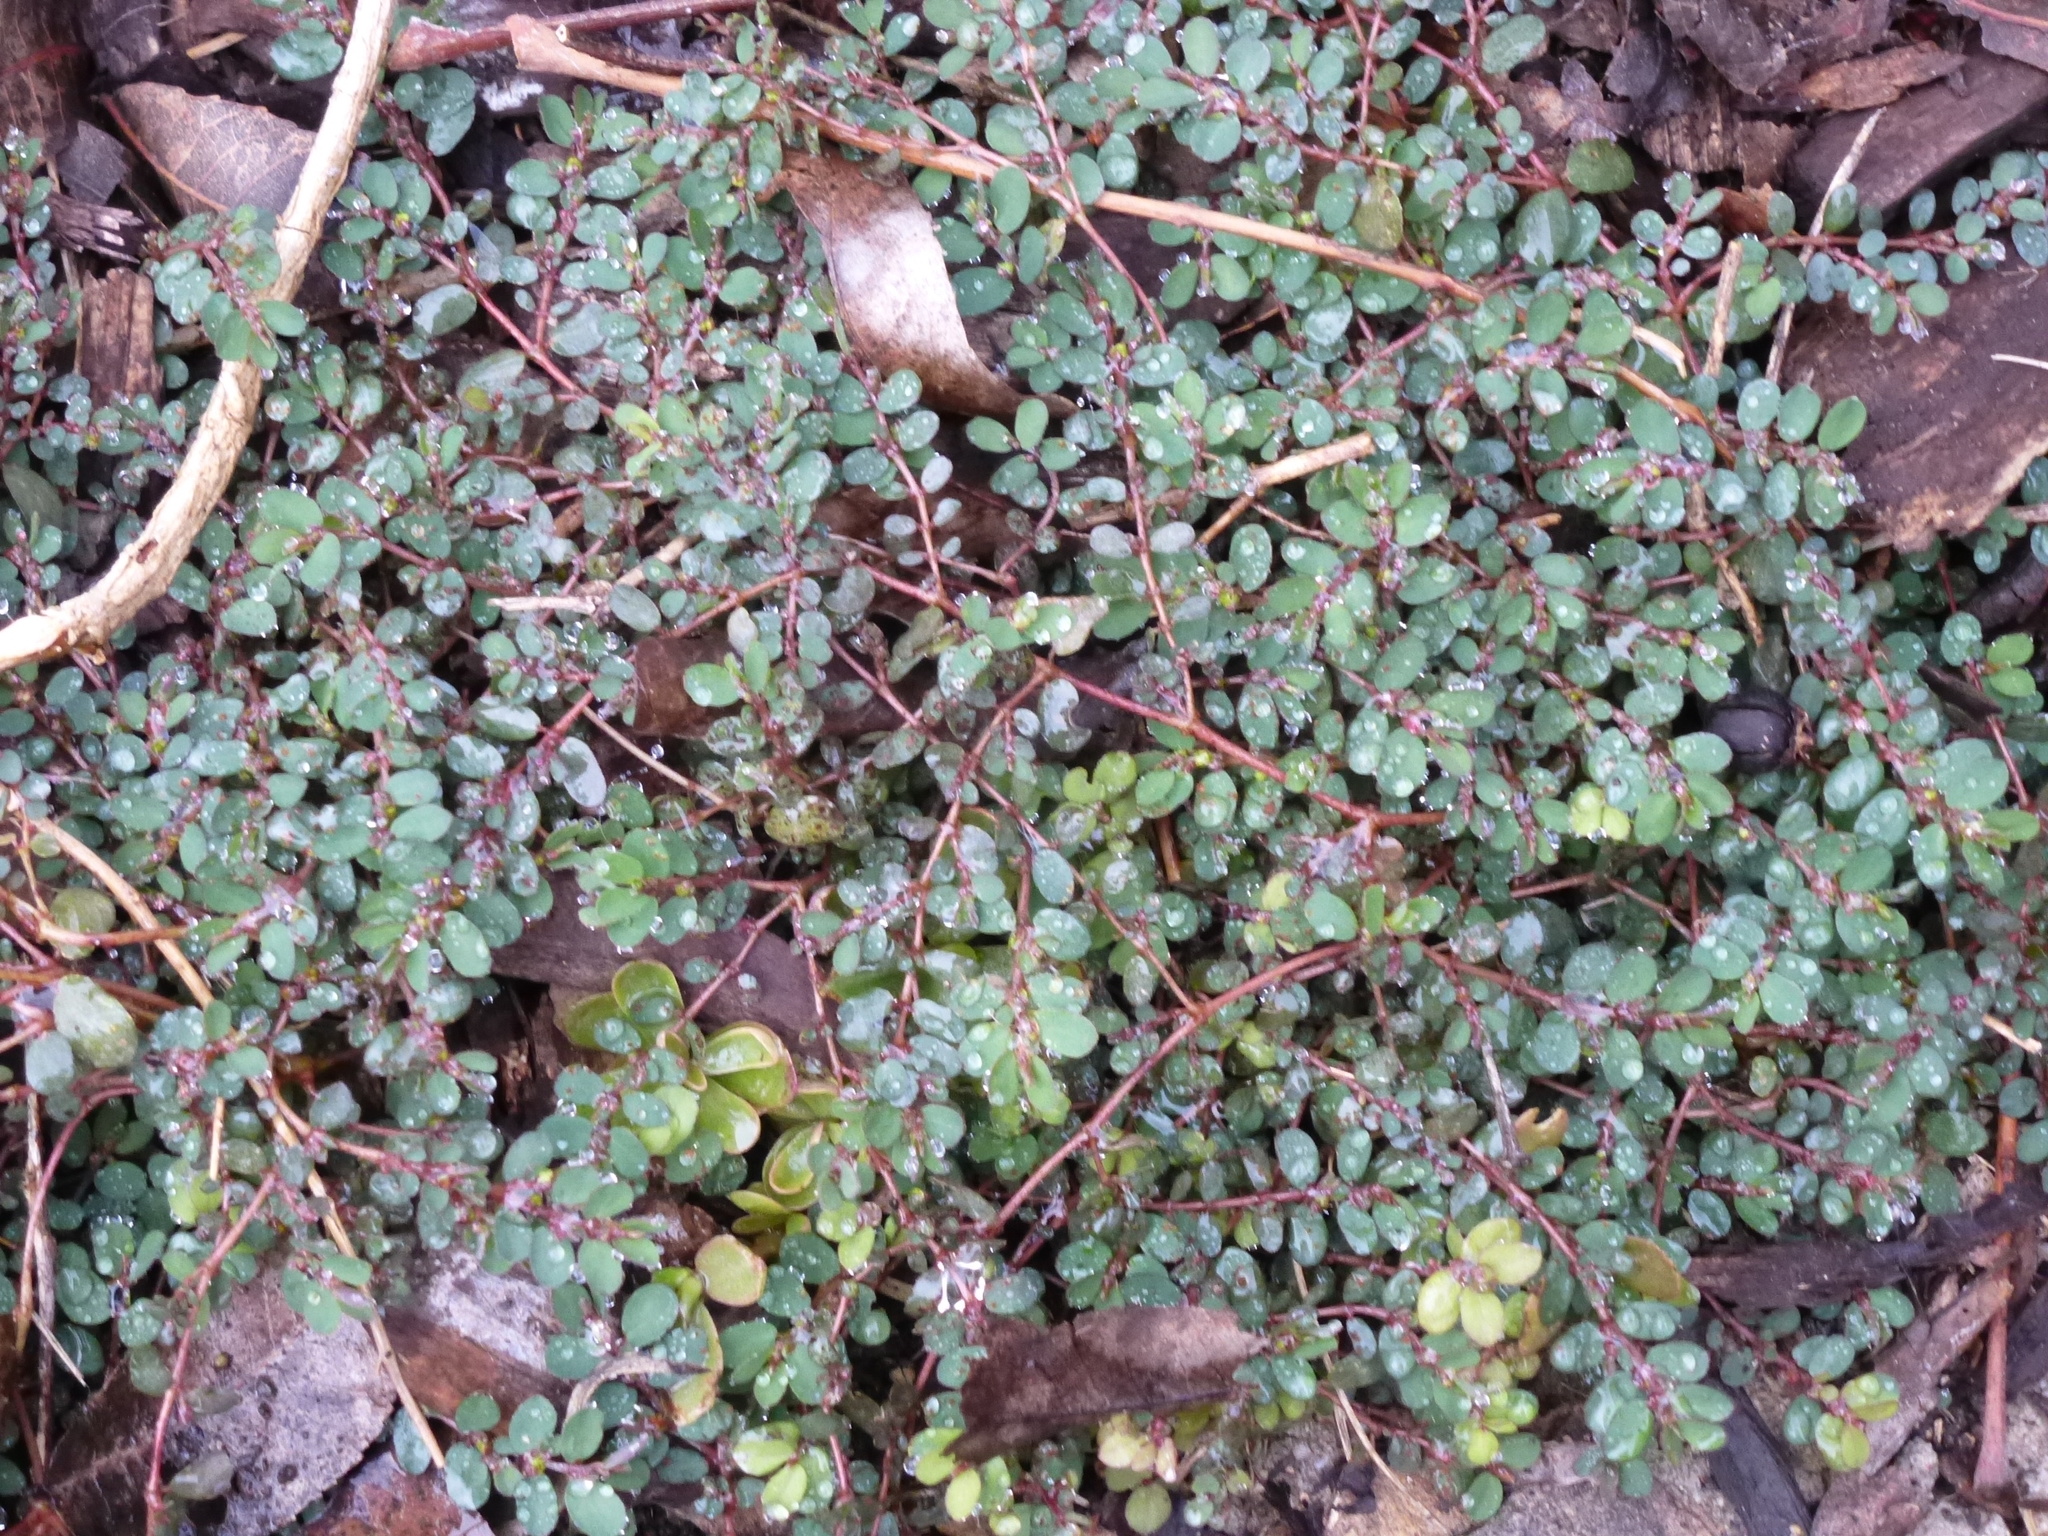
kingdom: Plantae
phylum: Tracheophyta
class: Magnoliopsida
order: Malpighiales
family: Euphorbiaceae
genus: Euphorbia
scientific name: Euphorbia prostrata
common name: Prostrate sandmat
